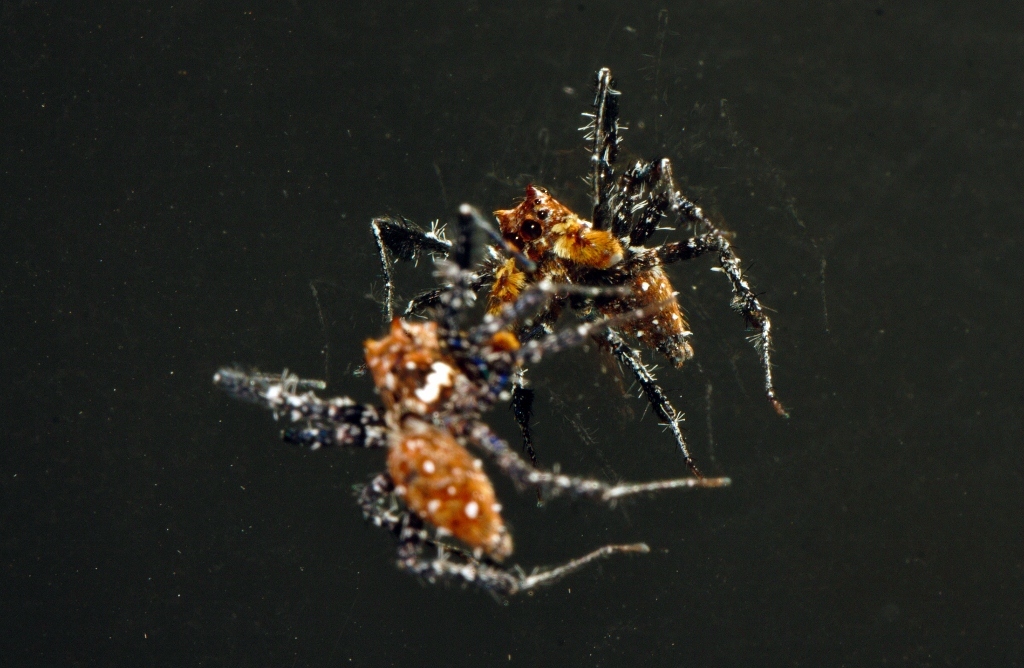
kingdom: Animalia
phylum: Arthropoda
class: Arachnida
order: Araneae
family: Salticidae
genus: Portia
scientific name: Portia schultzi
